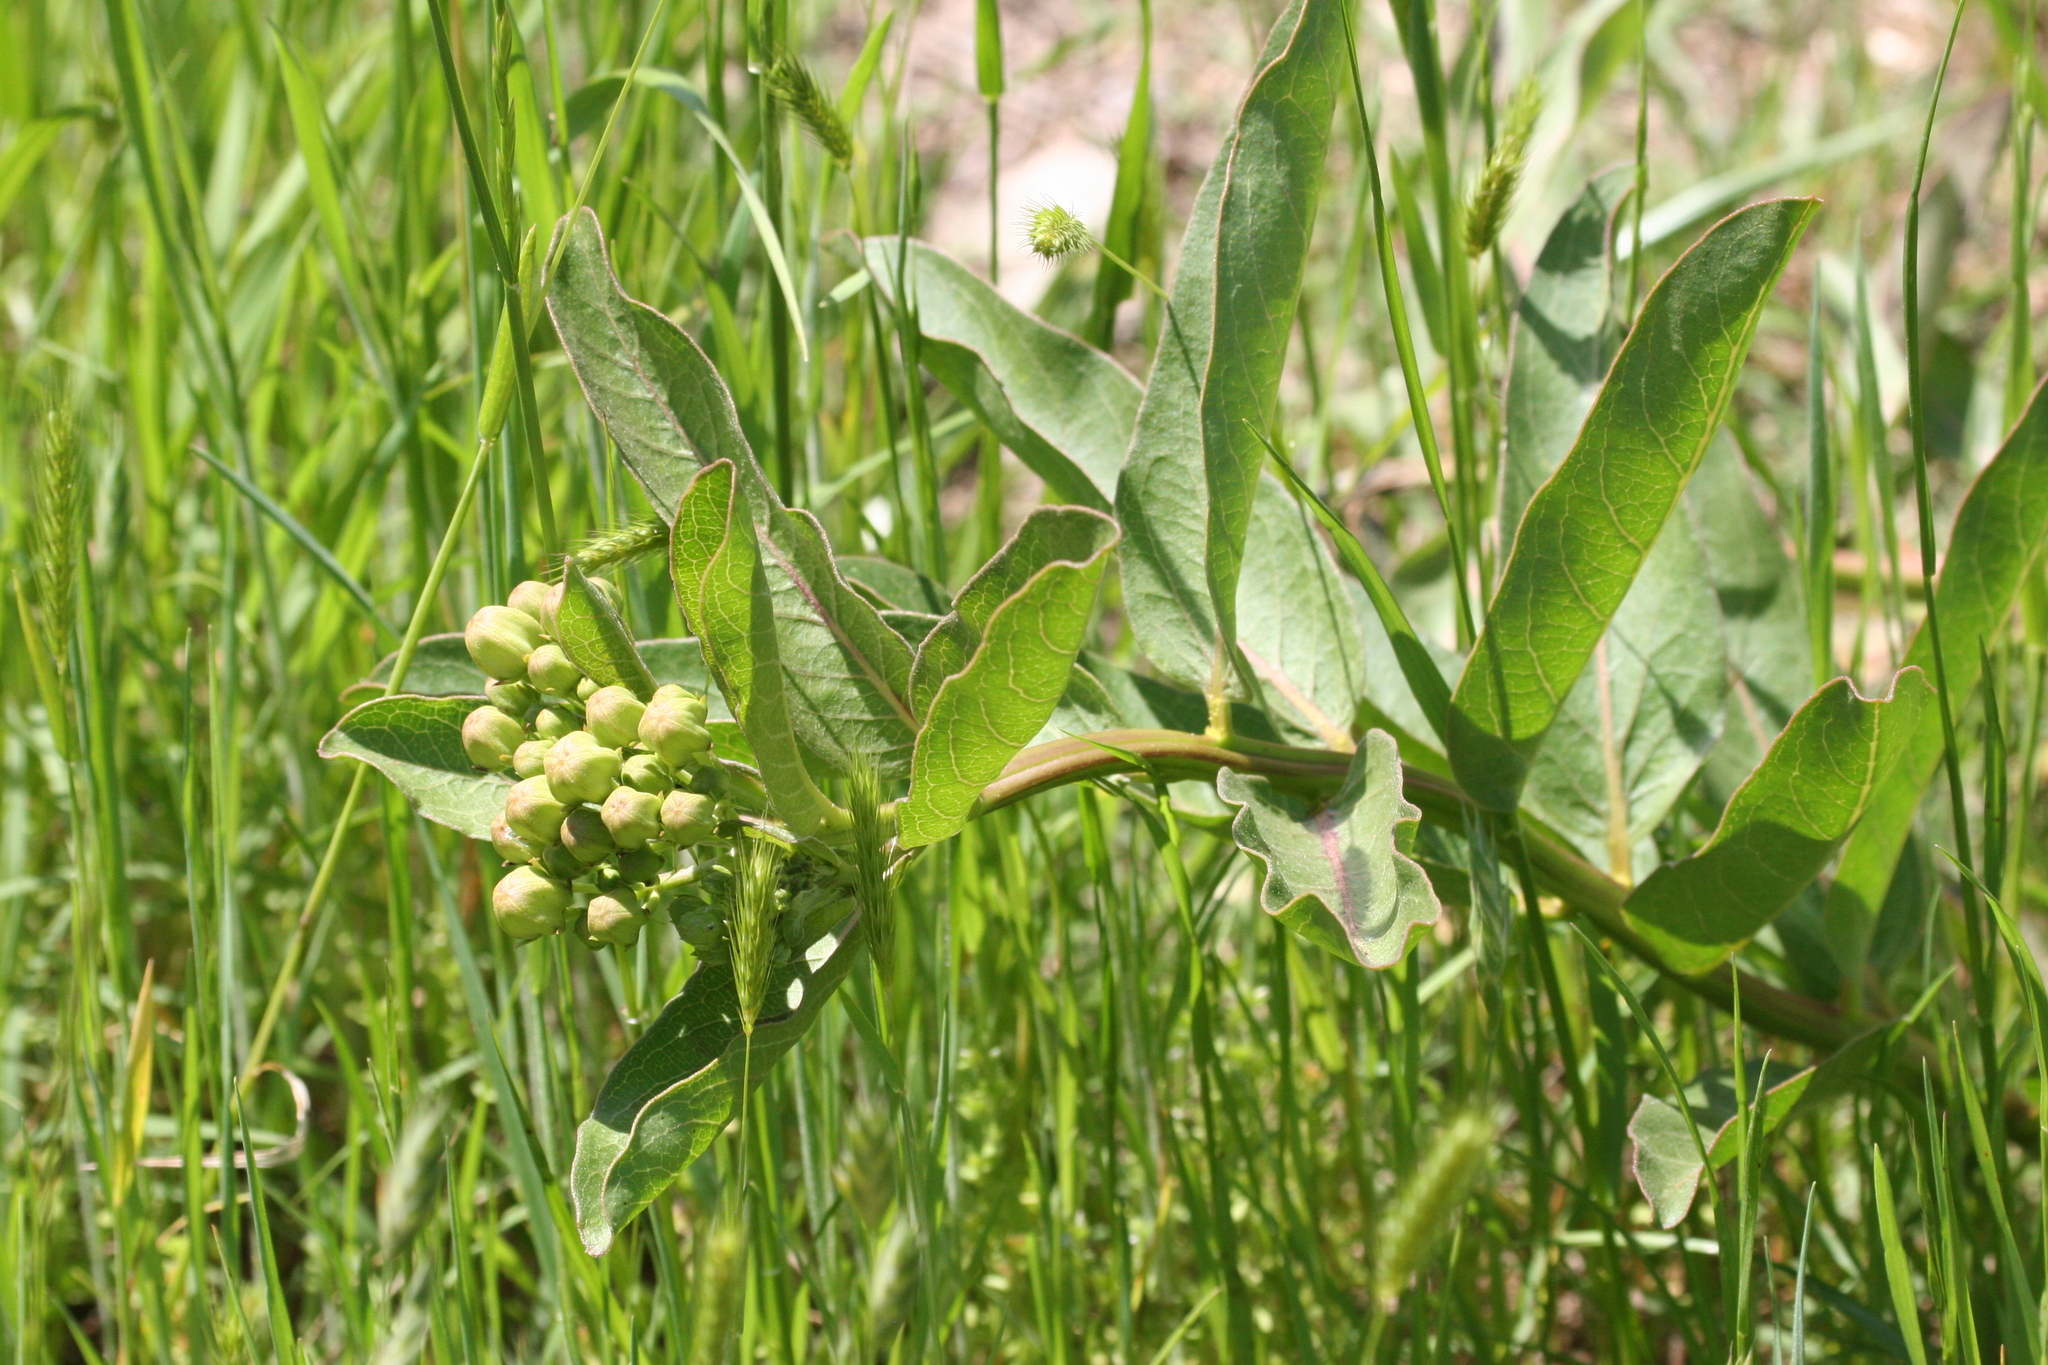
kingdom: Plantae
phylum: Tracheophyta
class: Magnoliopsida
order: Gentianales
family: Apocynaceae
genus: Asclepias
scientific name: Asclepias viridis
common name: Antelope-horns
